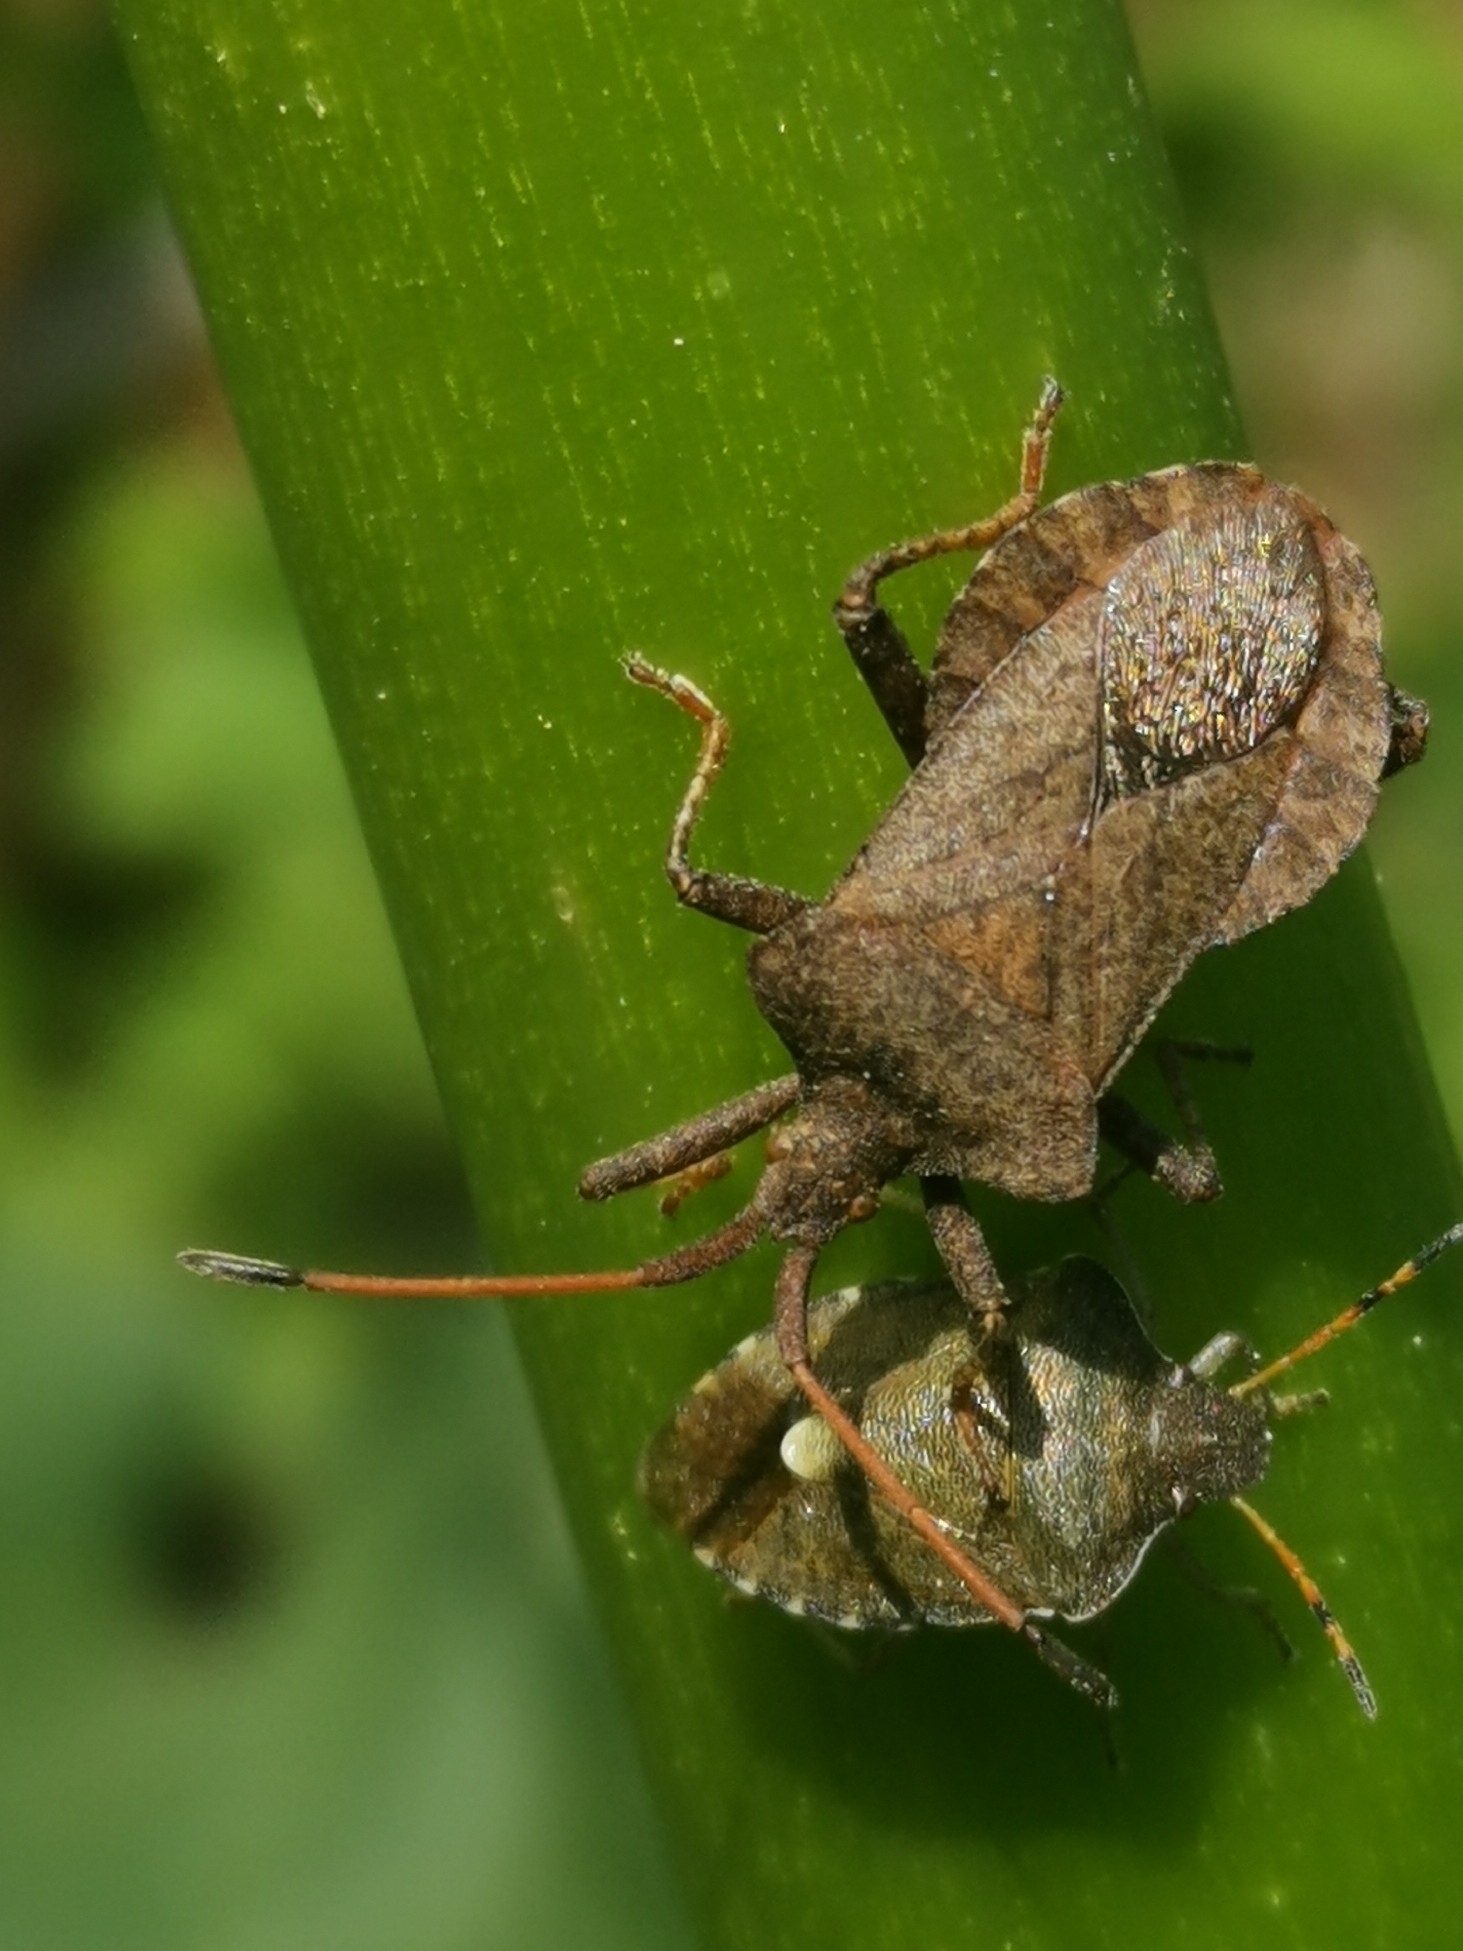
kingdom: Animalia
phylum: Arthropoda
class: Insecta
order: Hemiptera
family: Coreidae
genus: Coreus
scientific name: Coreus marginatus
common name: Dock bug
